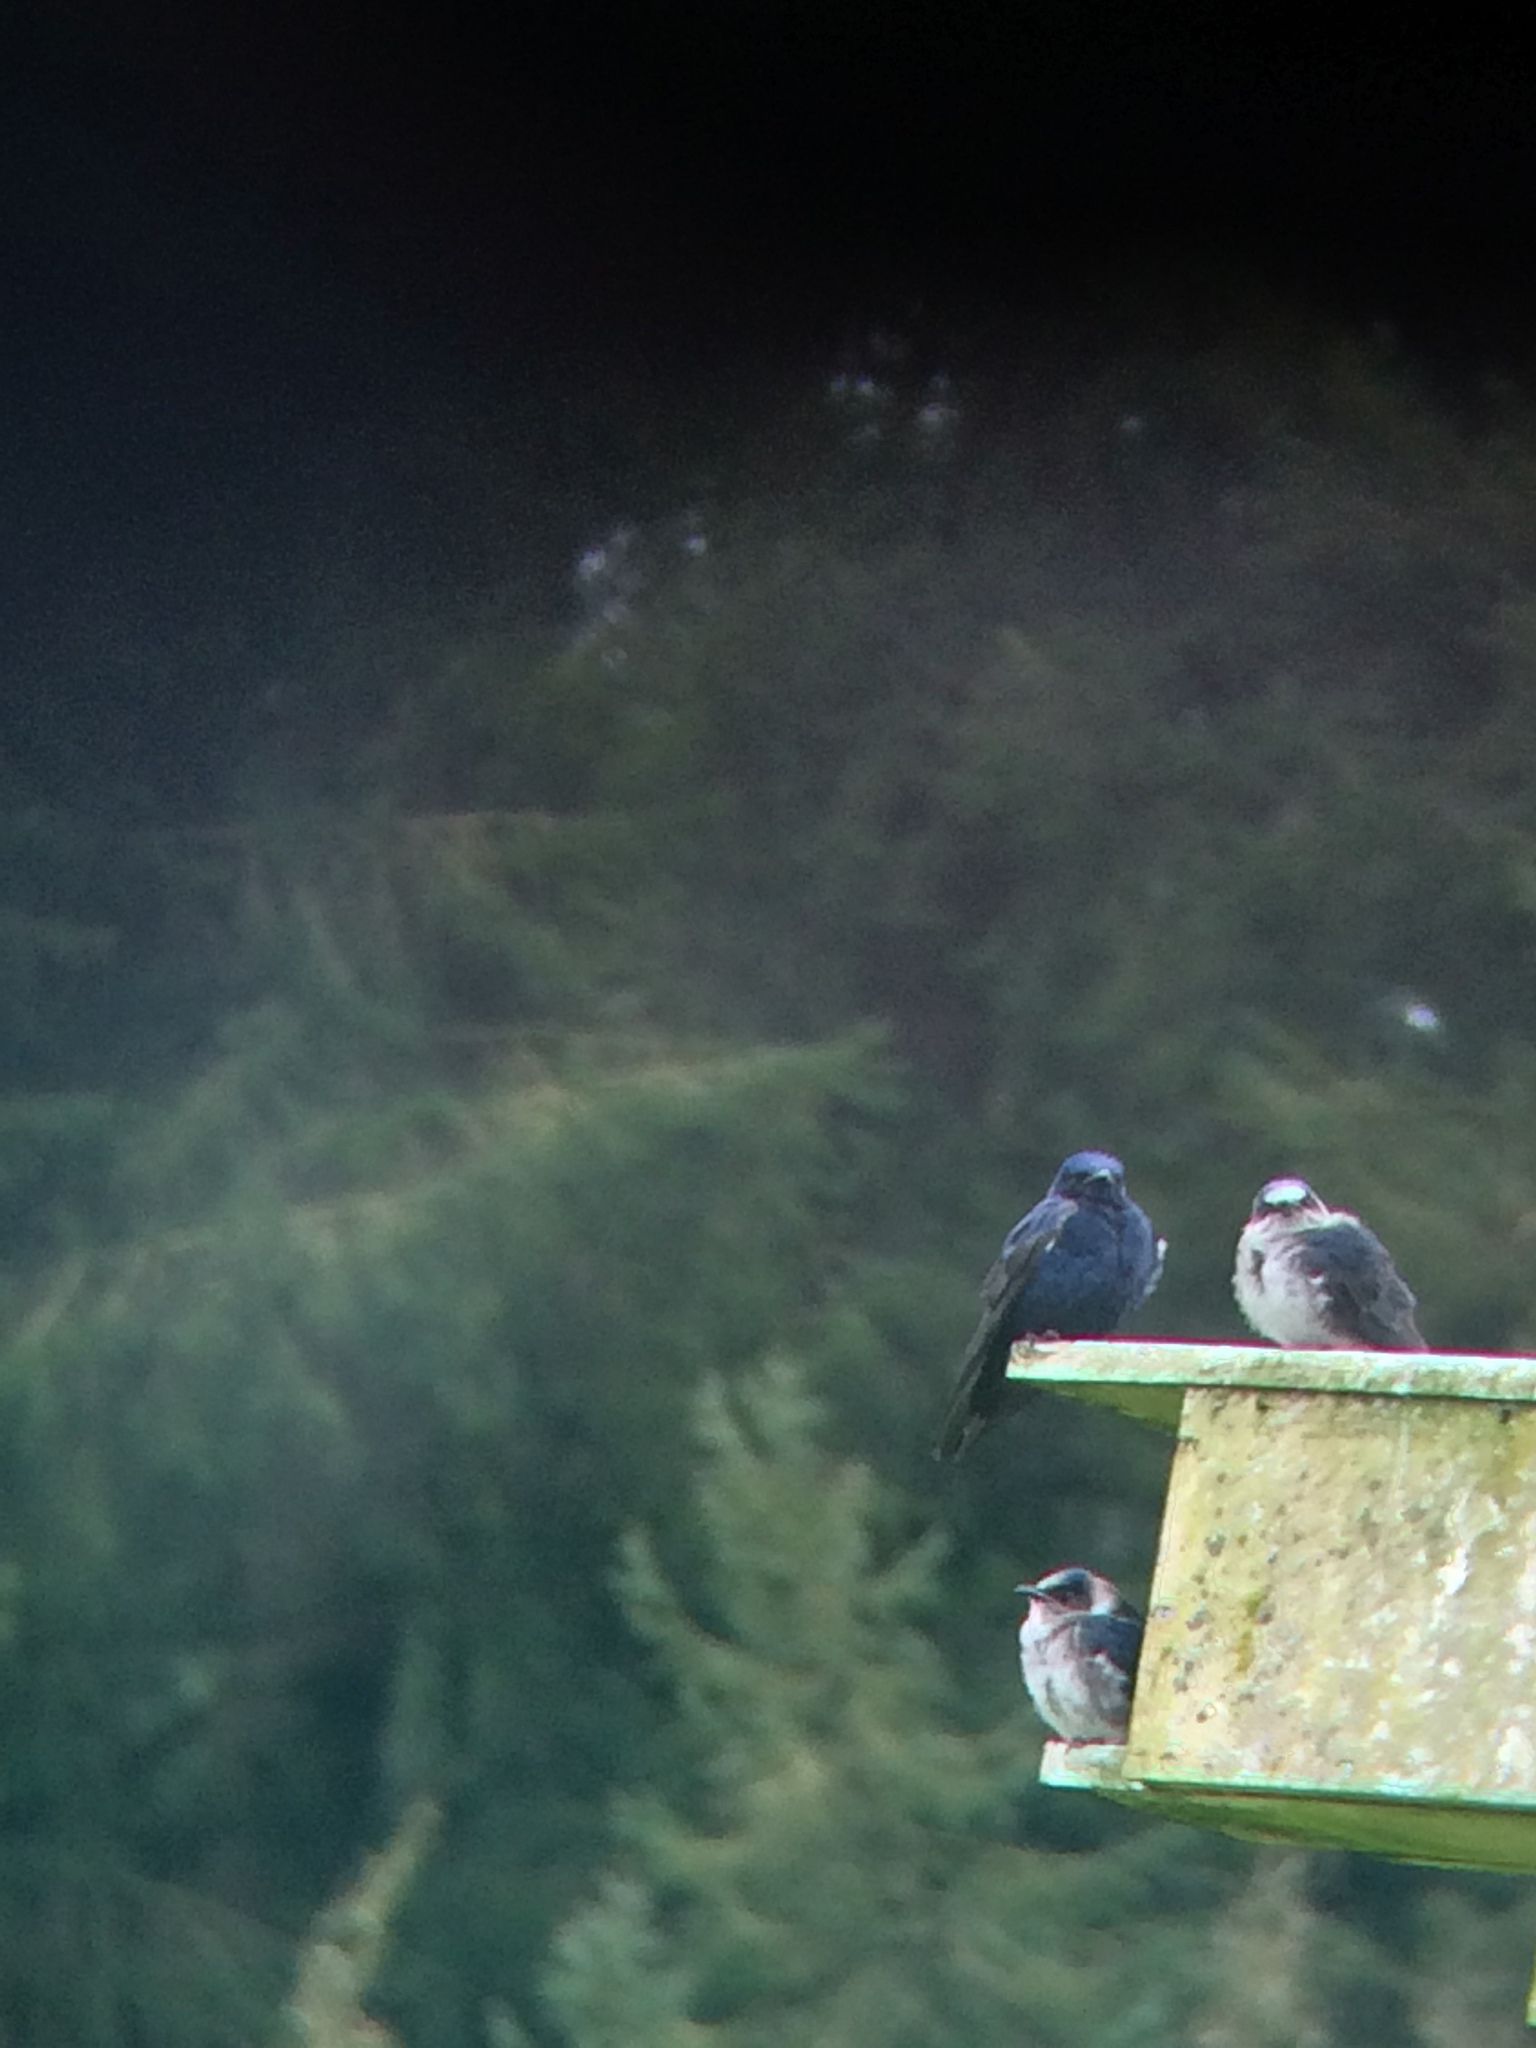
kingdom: Animalia
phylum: Chordata
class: Aves
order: Passeriformes
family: Hirundinidae
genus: Progne
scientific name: Progne subis
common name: Purple martin
